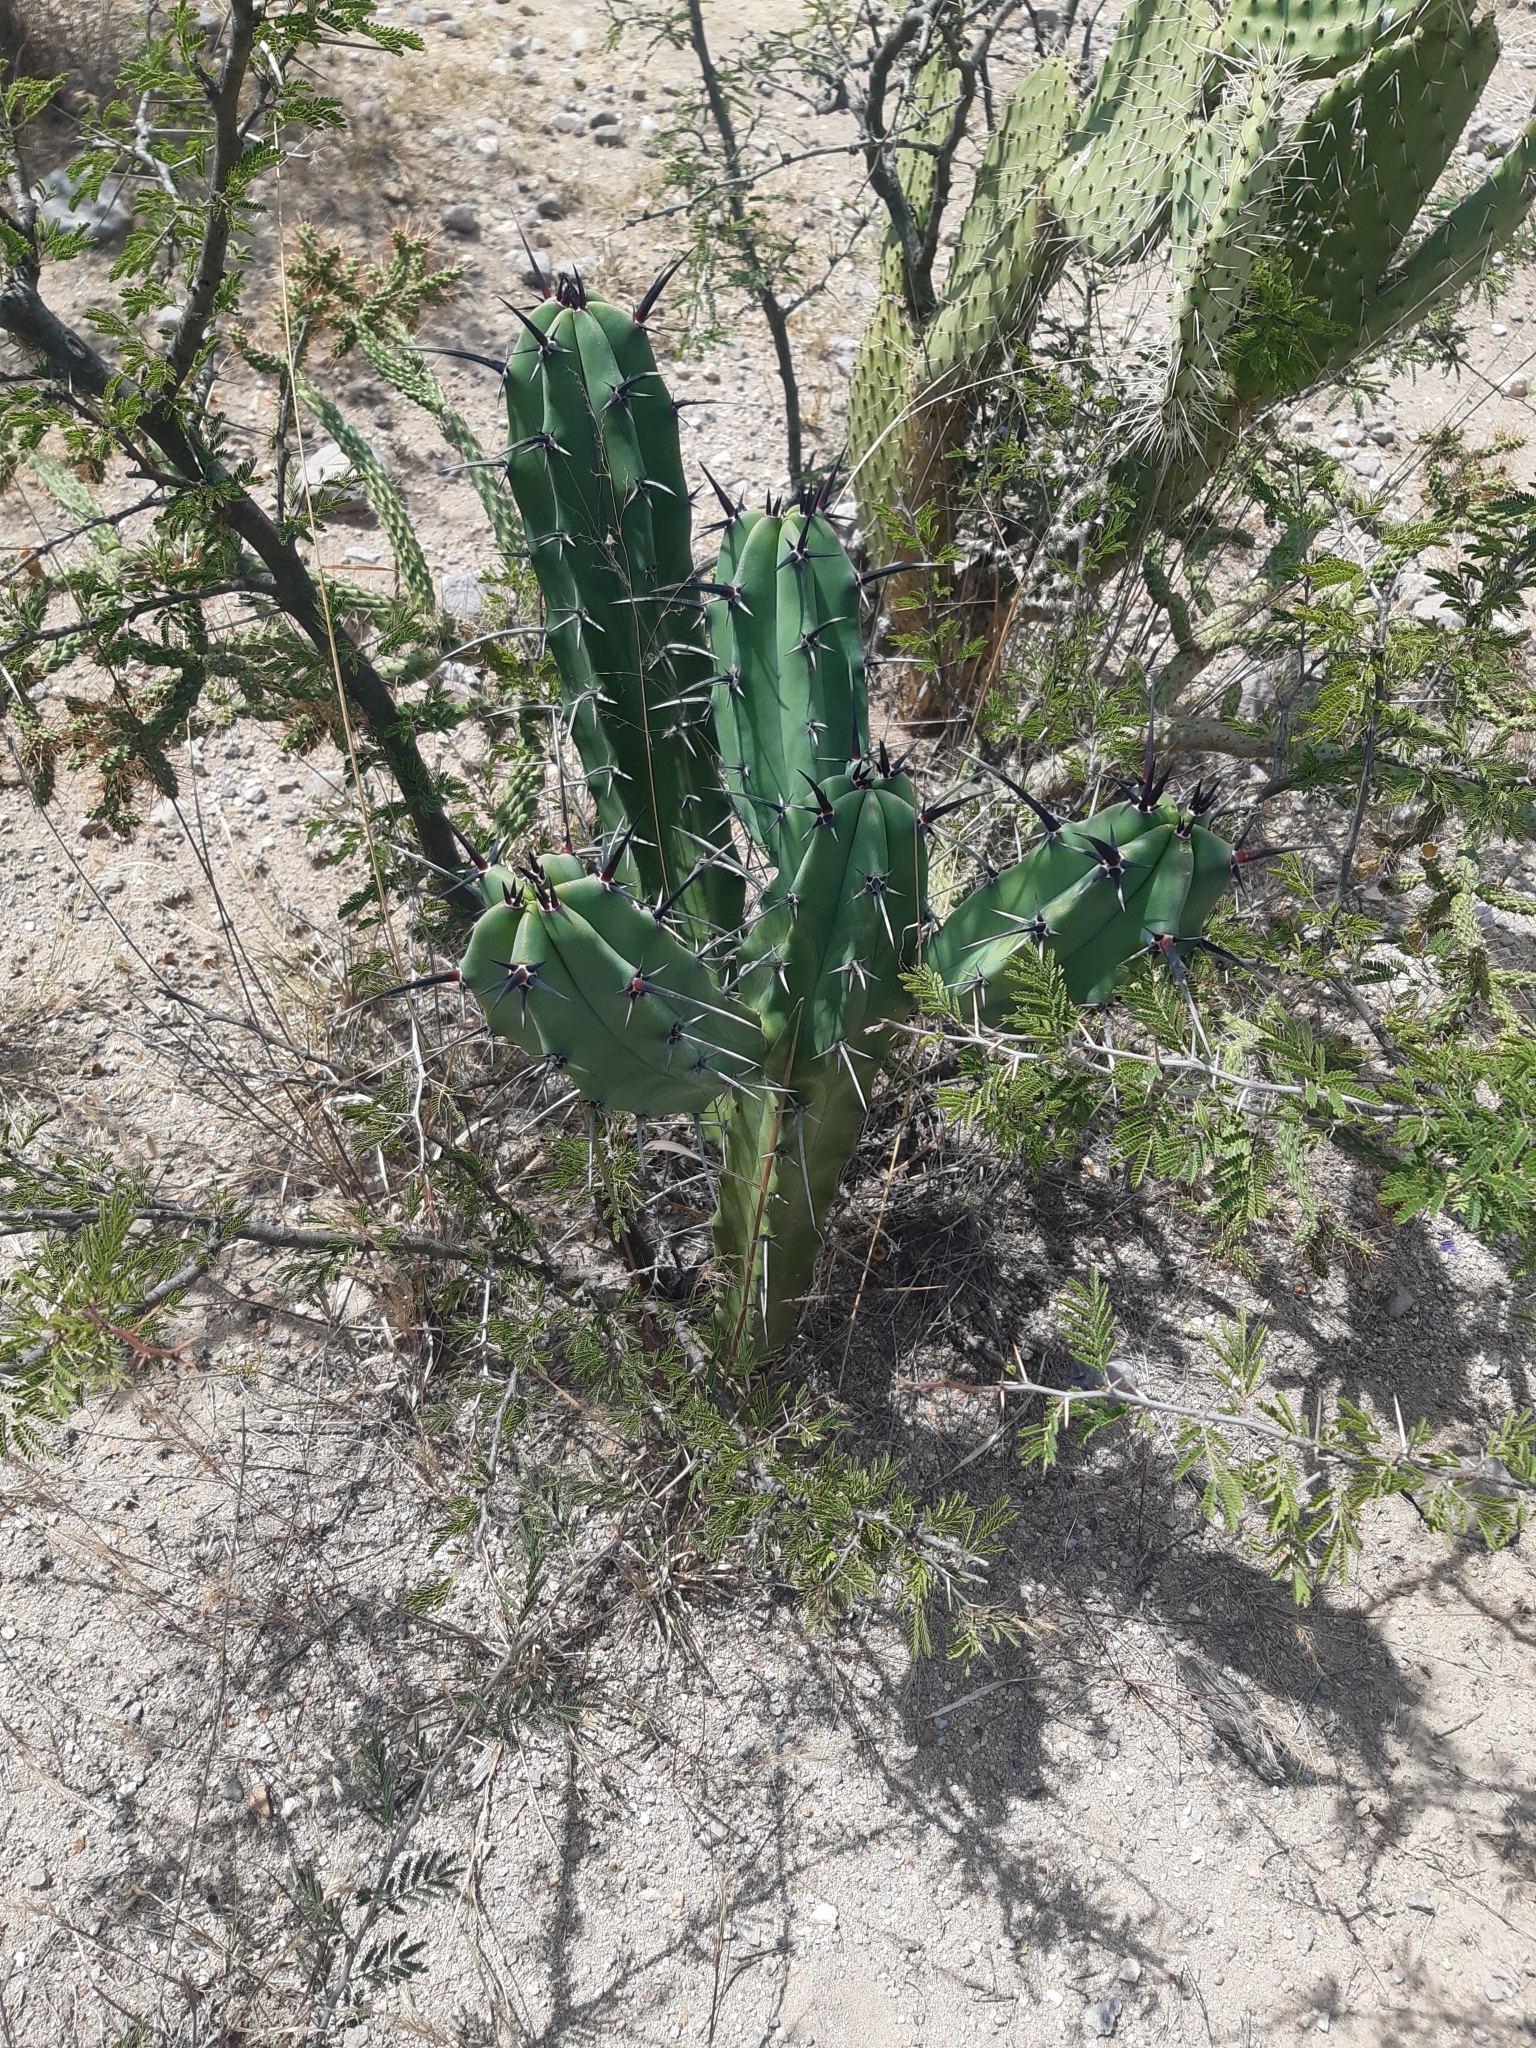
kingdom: Plantae
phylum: Tracheophyta
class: Magnoliopsida
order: Caryophyllales
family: Cactaceae
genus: Myrtillocactus
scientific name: Myrtillocactus geometrizans
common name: Bilberry cactus
